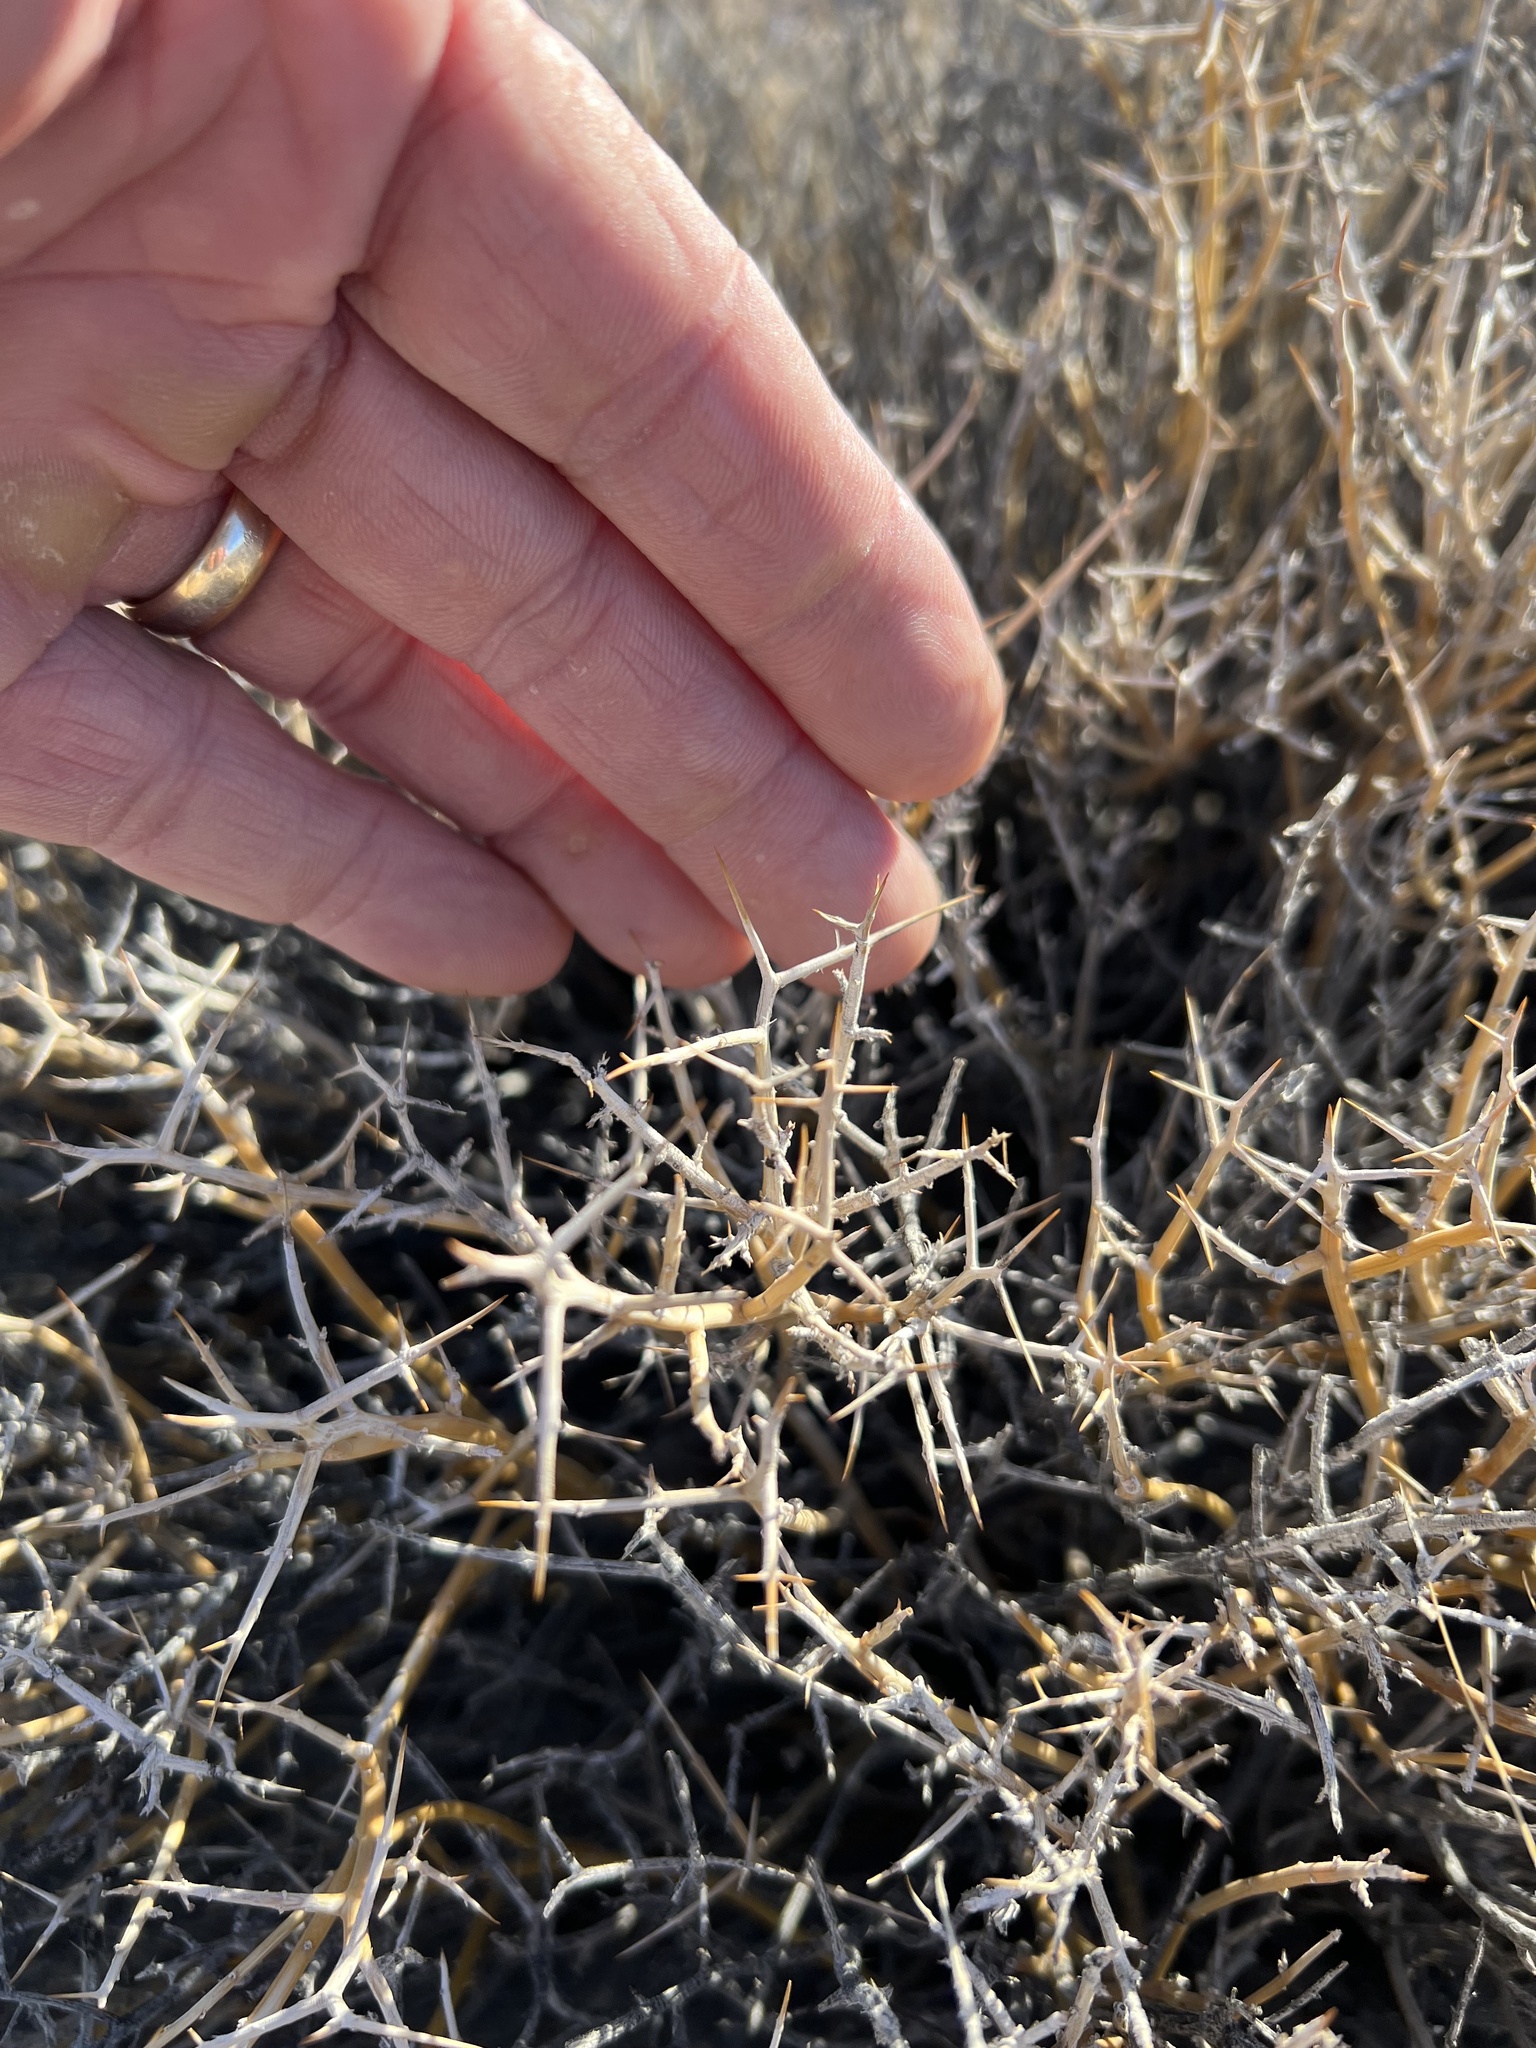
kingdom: Plantae
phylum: Tracheophyta
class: Magnoliopsida
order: Lamiales
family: Oleaceae
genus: Menodora
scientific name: Menodora spinescens
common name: Spiny menodora
